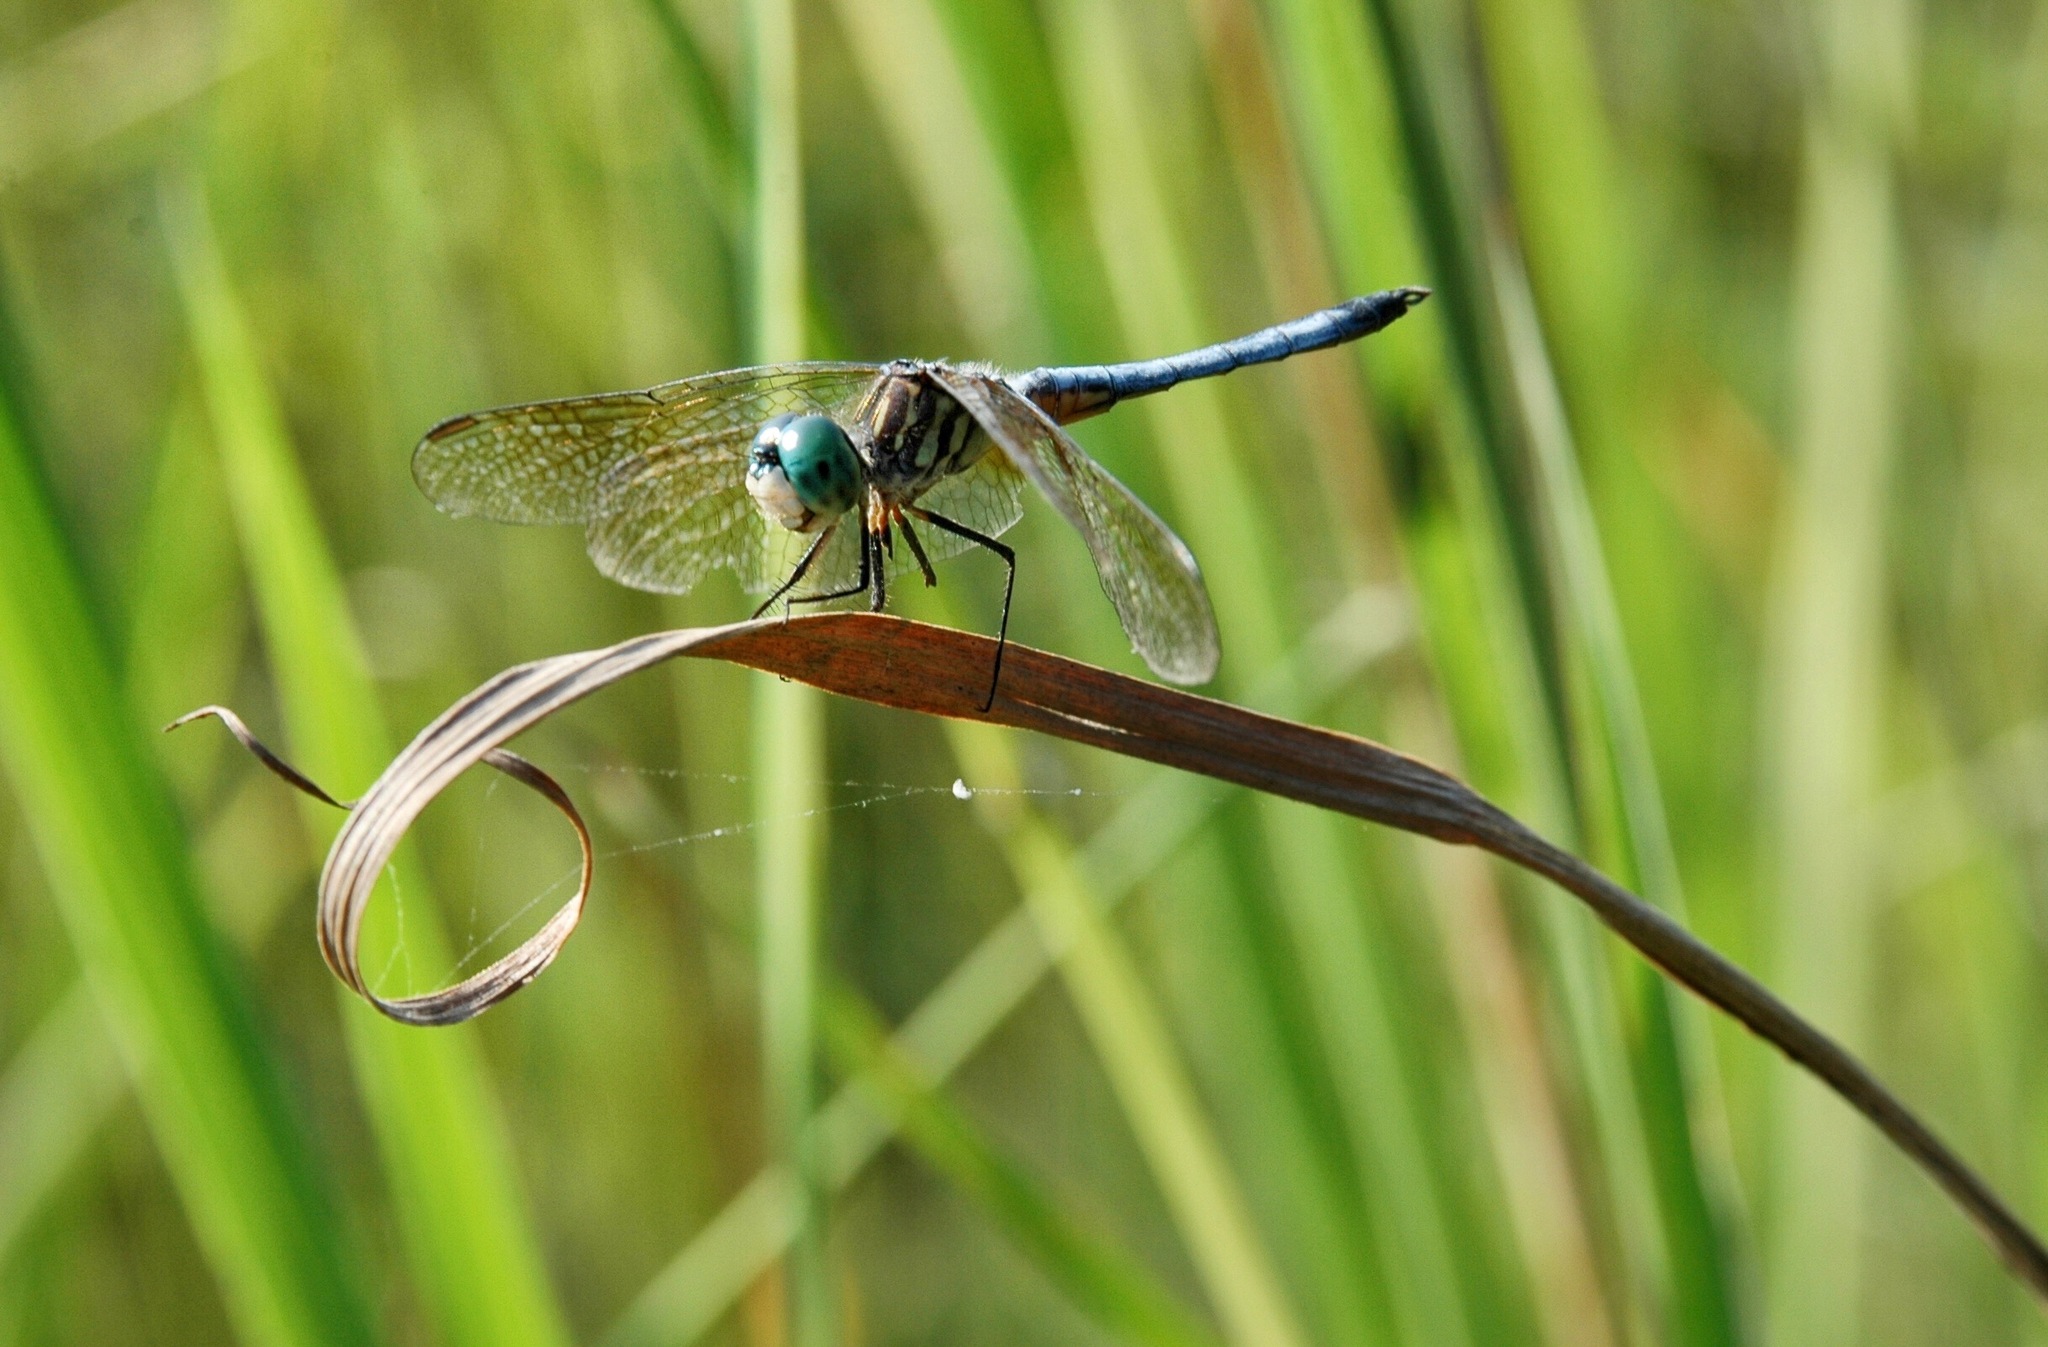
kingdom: Animalia
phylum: Arthropoda
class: Insecta
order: Odonata
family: Libellulidae
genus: Pachydiplax
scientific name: Pachydiplax longipennis
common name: Blue dasher
